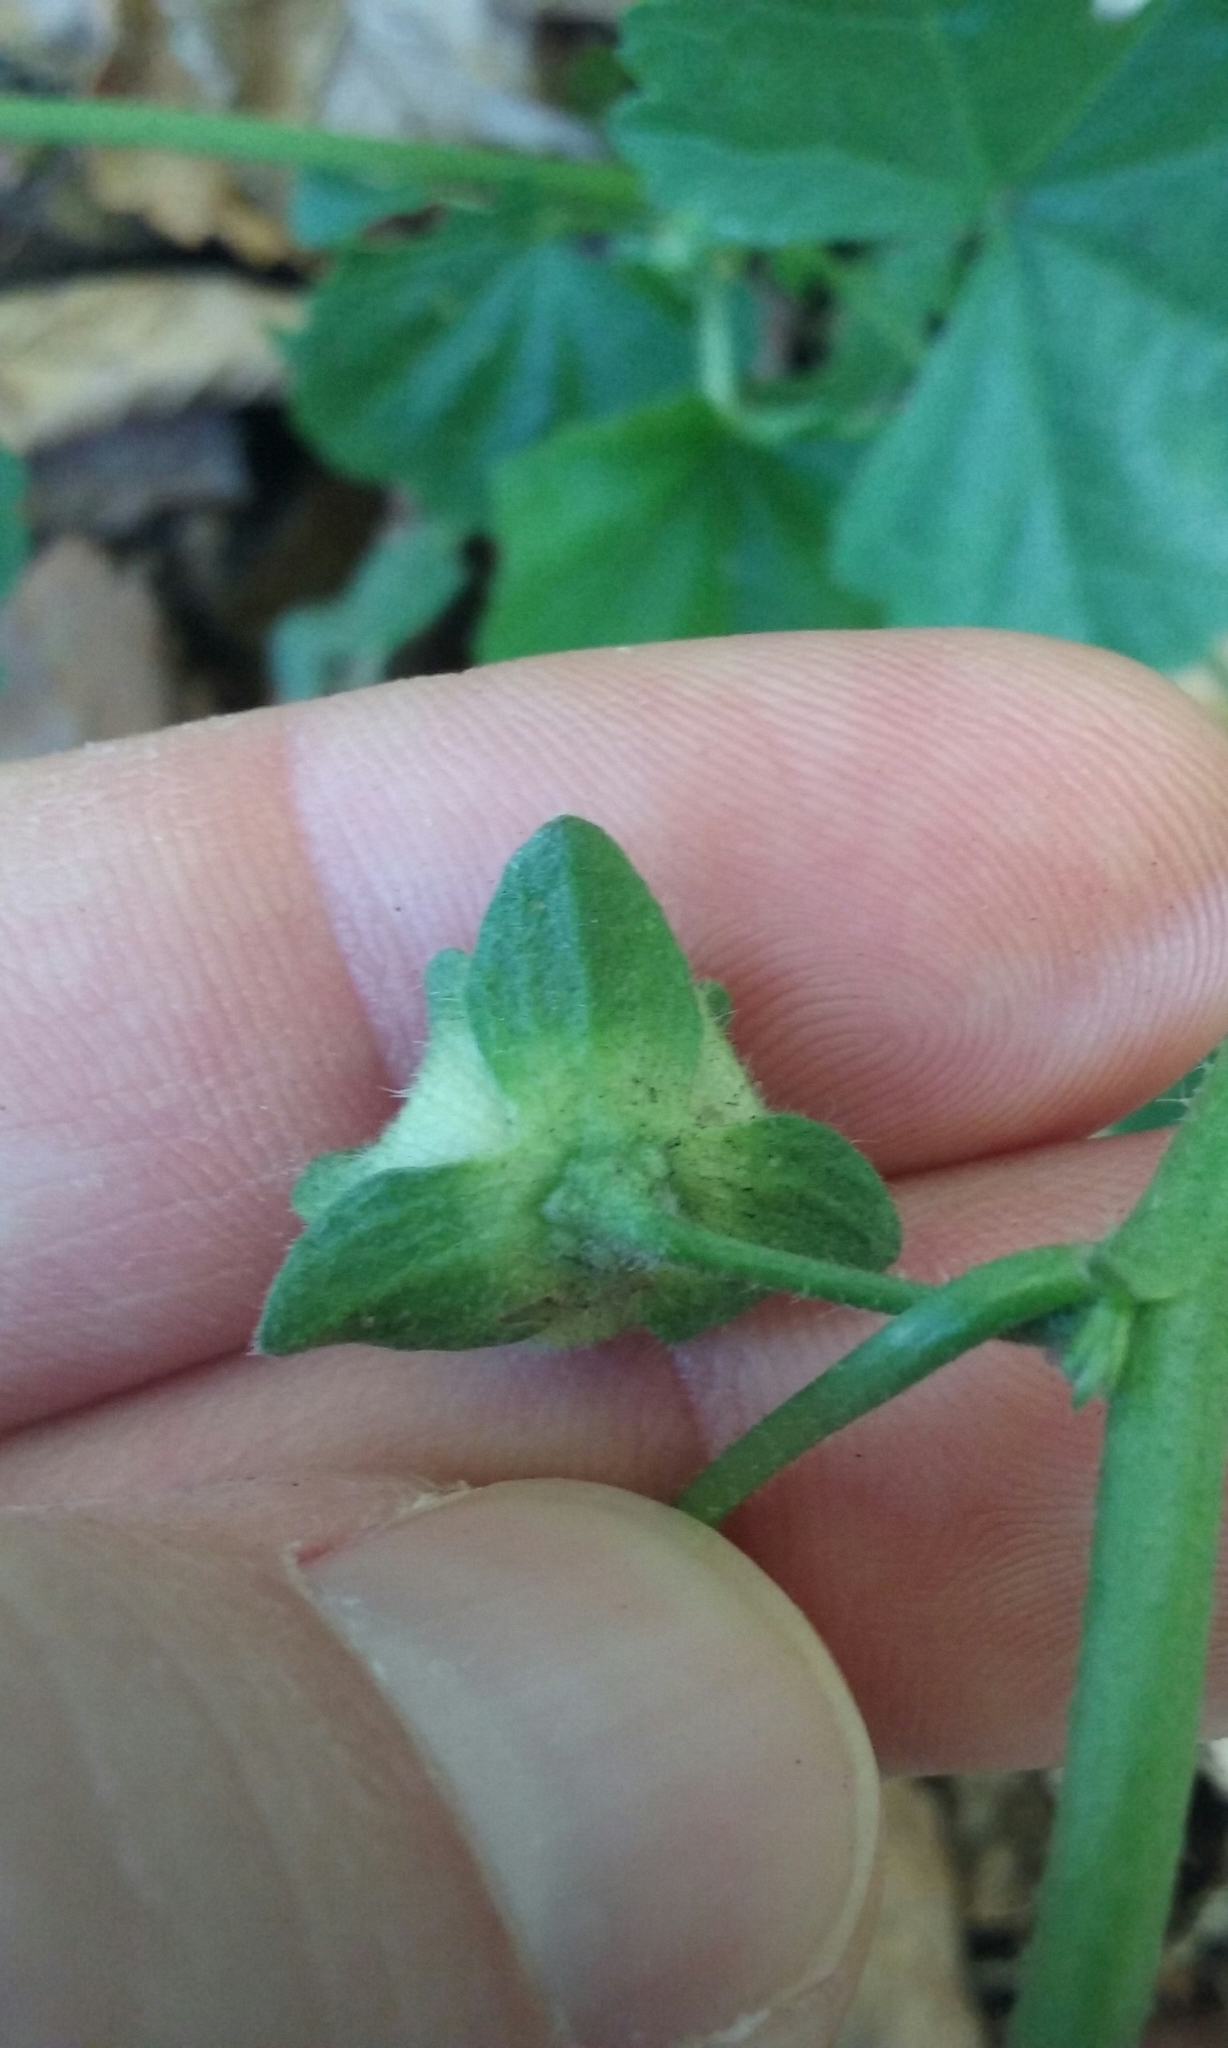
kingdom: Plantae
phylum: Tracheophyta
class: Magnoliopsida
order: Malvales
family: Malvaceae
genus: Malva
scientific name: Malva multiflora
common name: Cheeseweed
